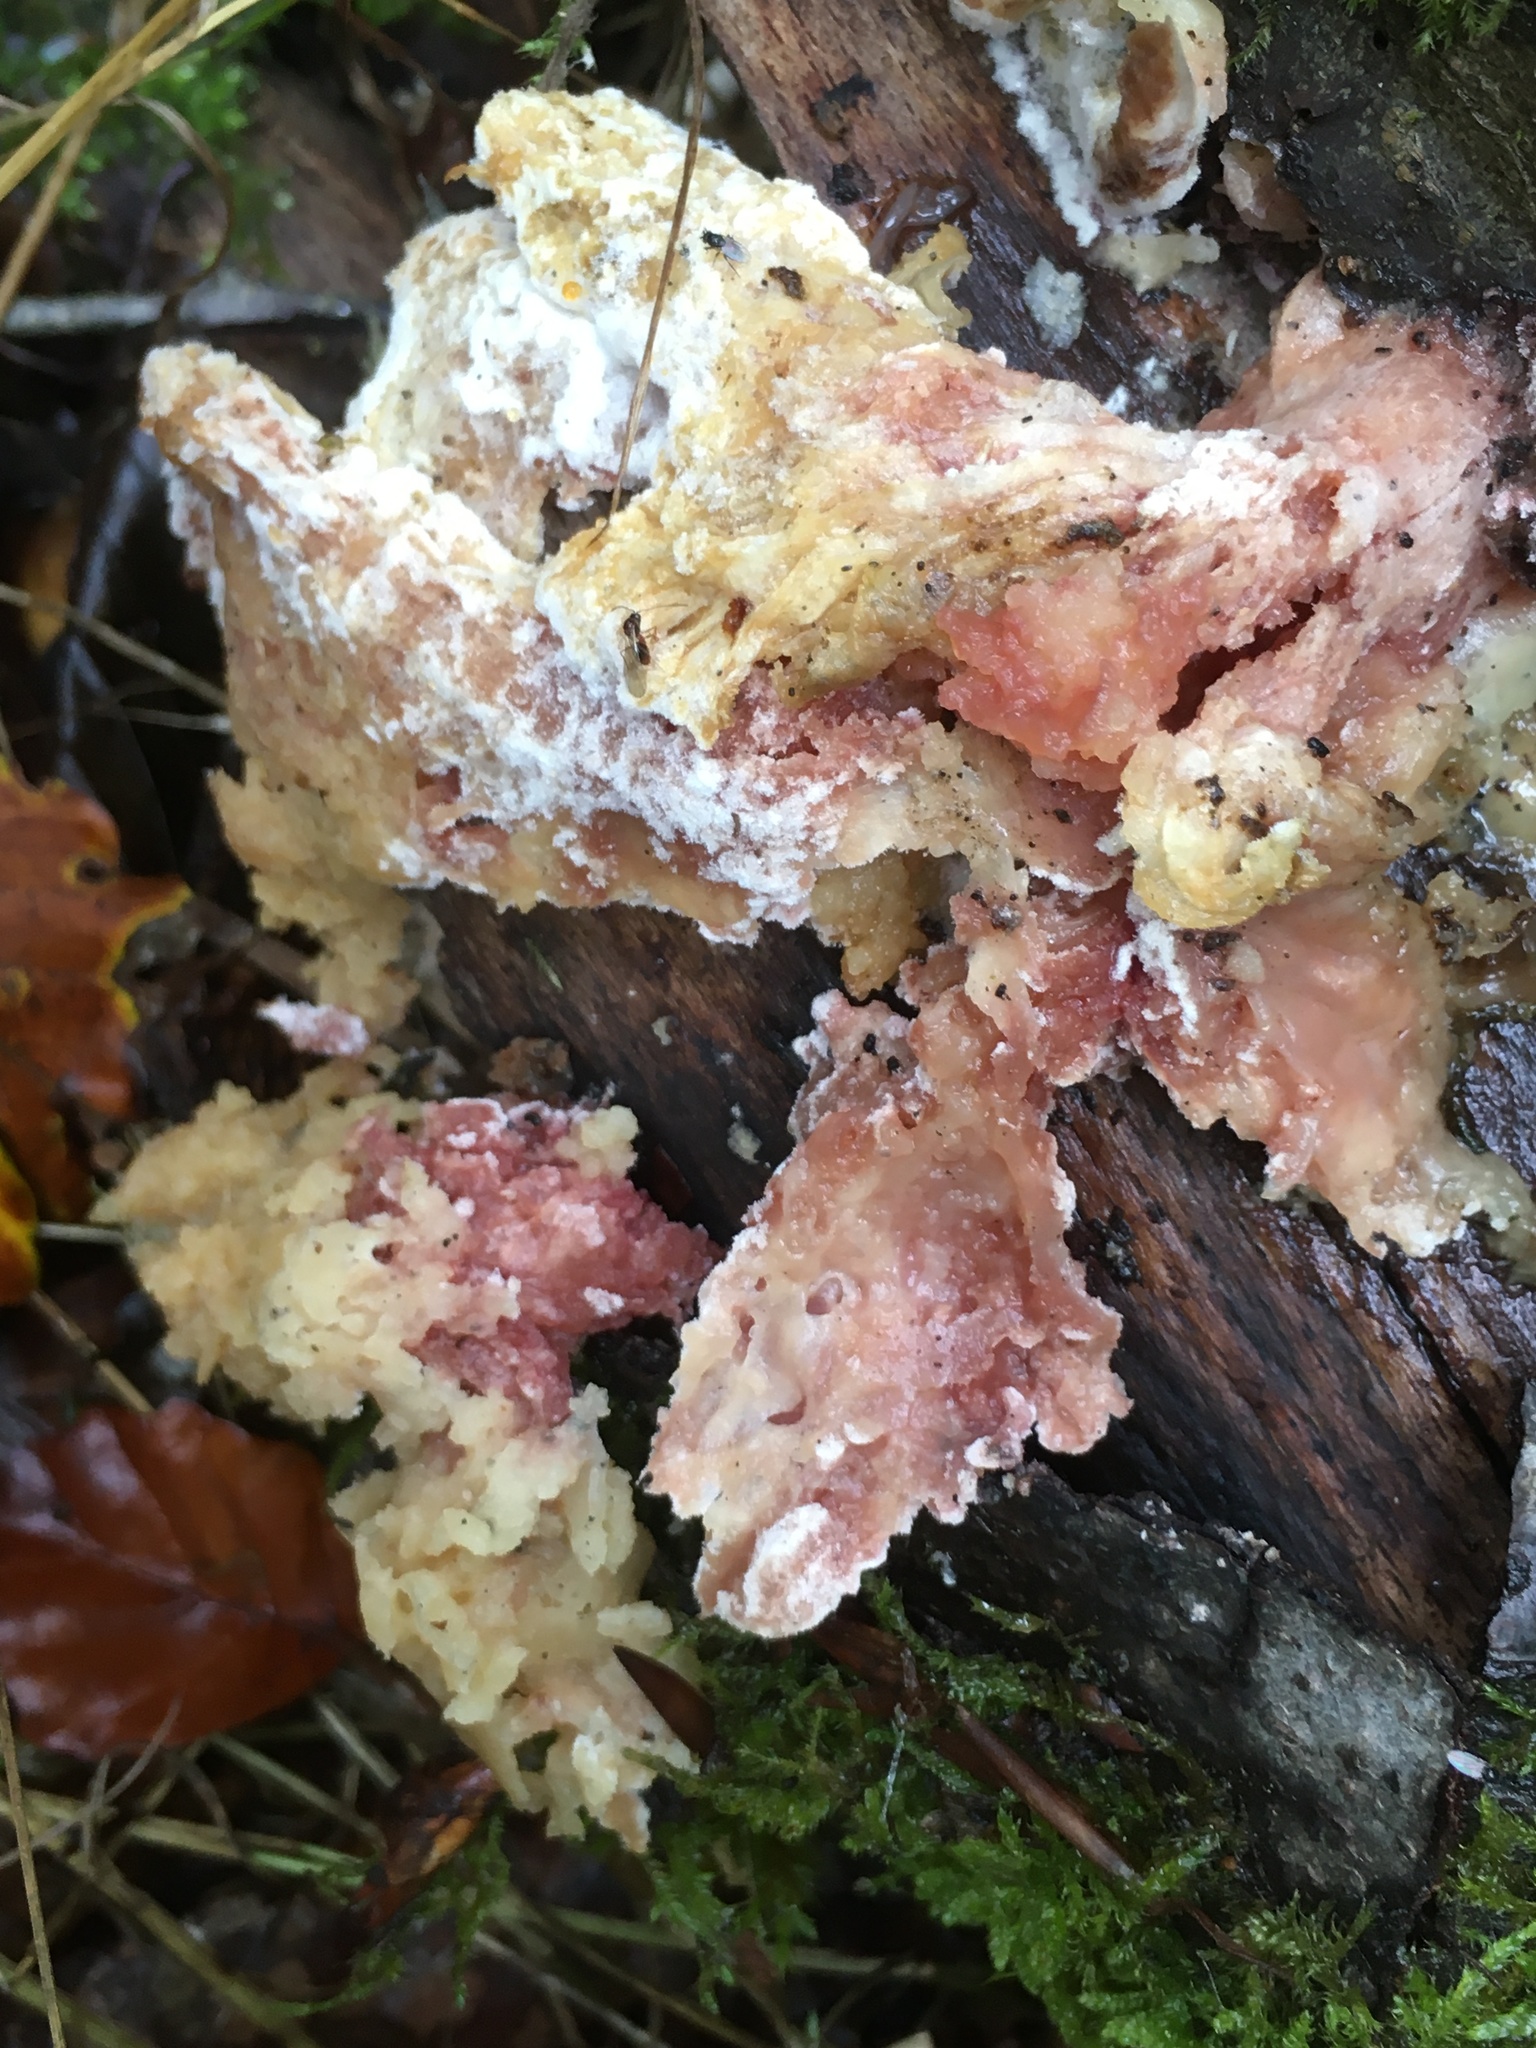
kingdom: Fungi
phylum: Basidiomycota
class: Agaricomycetes
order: Polyporales
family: Meruliaceae
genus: Phlebia
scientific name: Phlebia tremellosa
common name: Jelly rot
